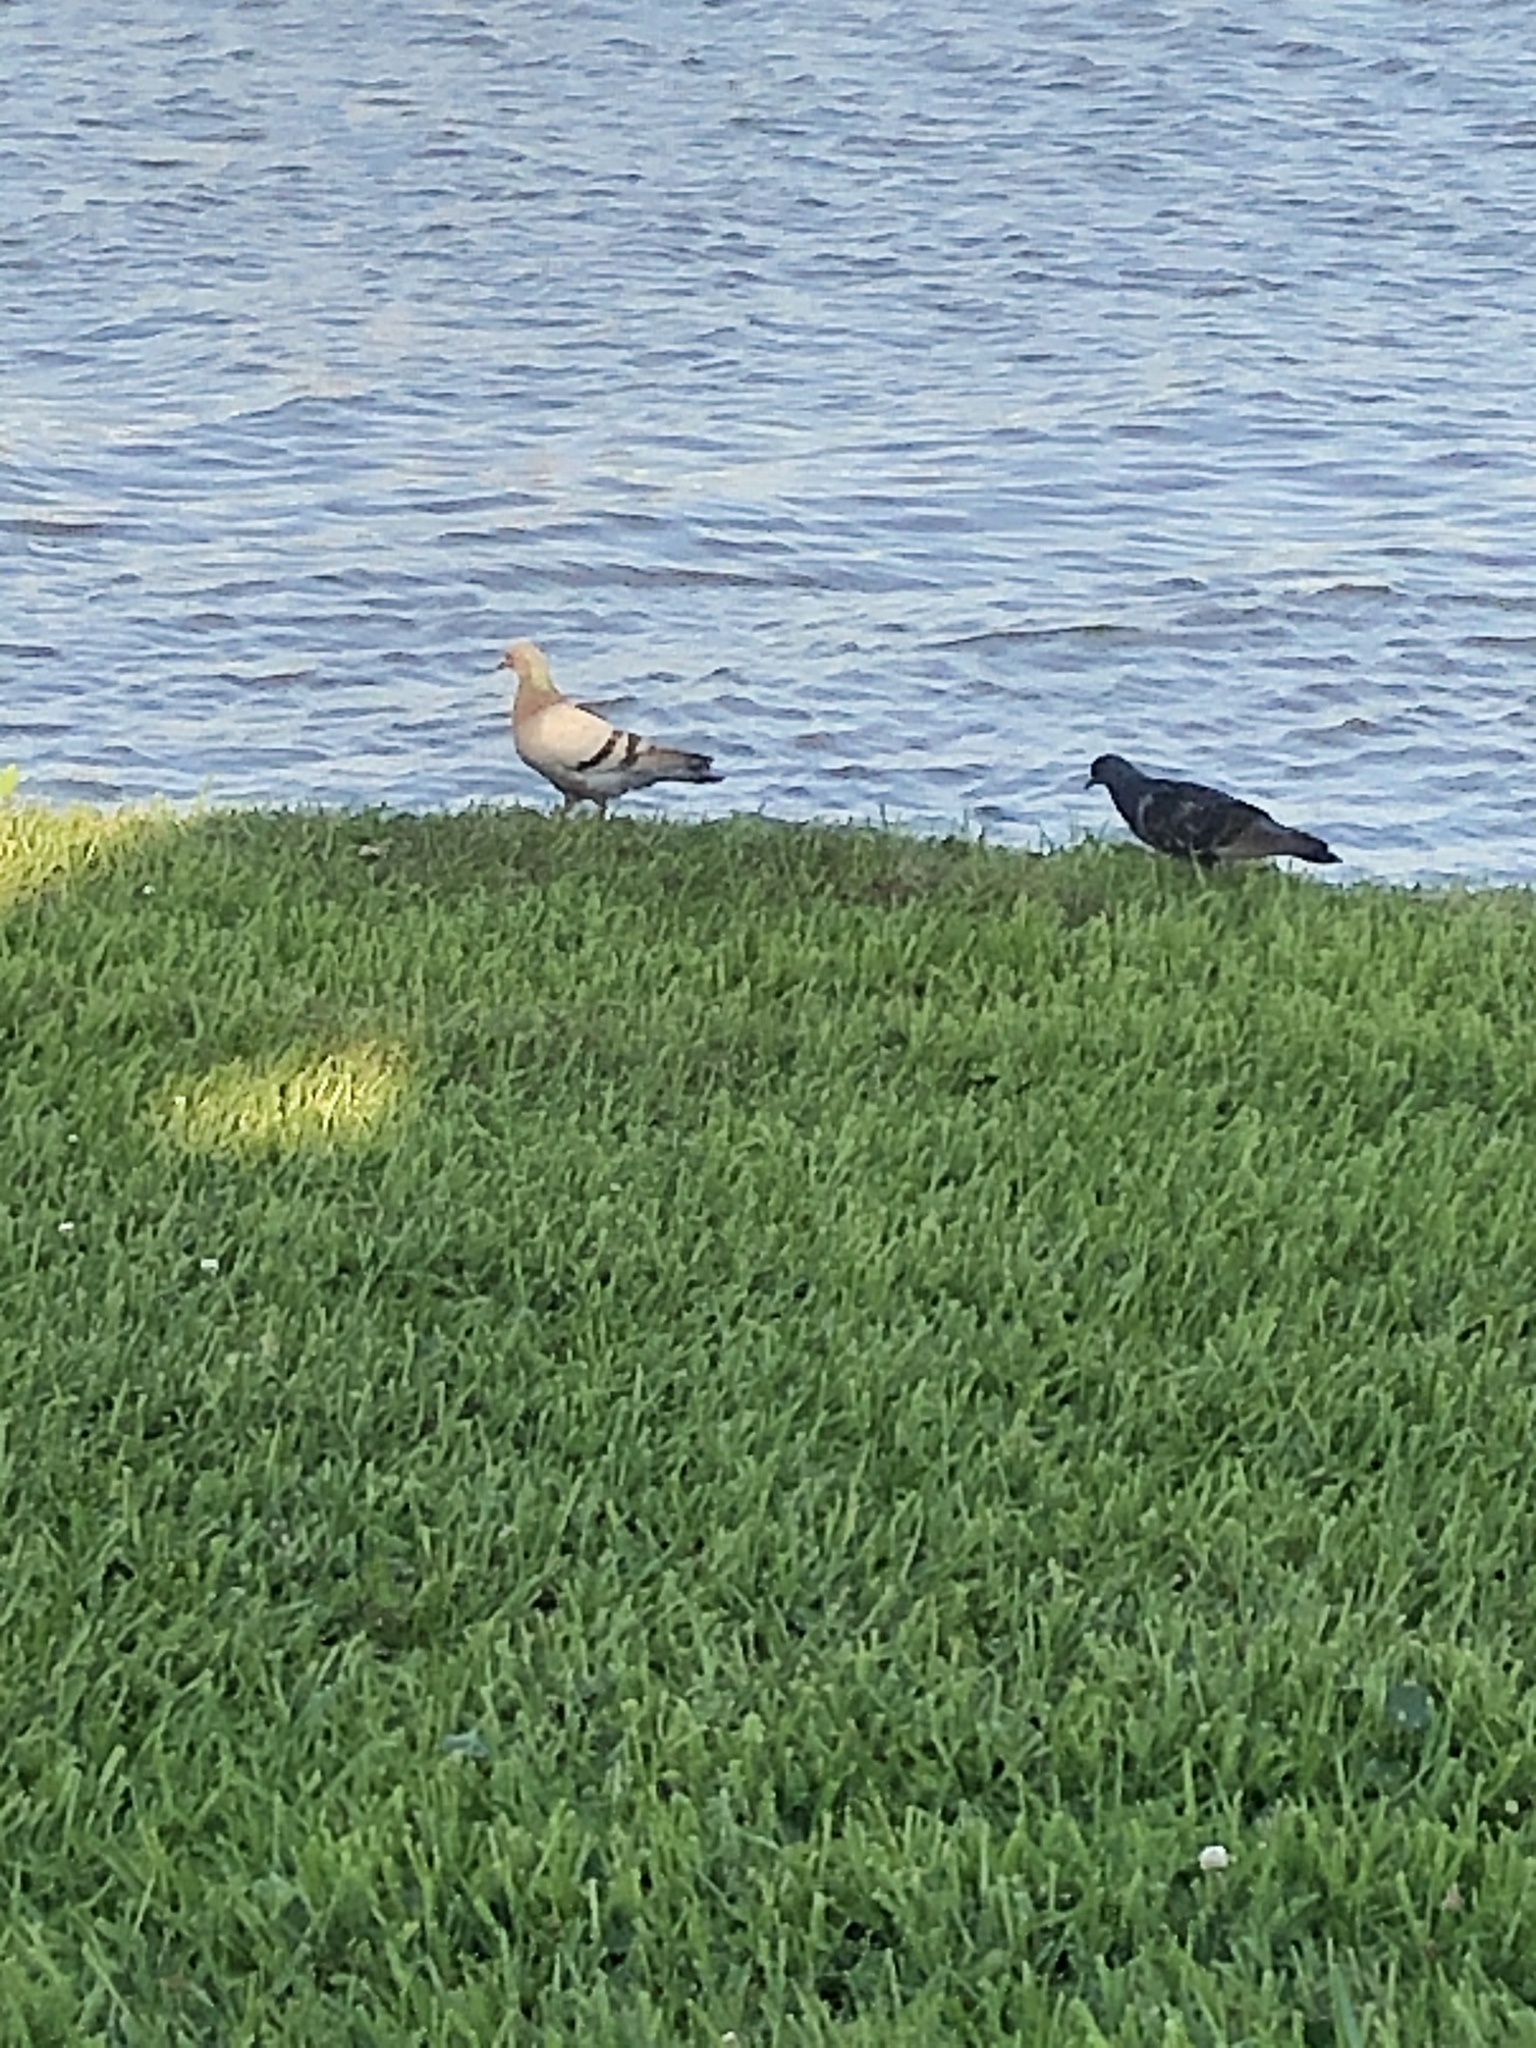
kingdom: Animalia
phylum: Chordata
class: Aves
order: Columbiformes
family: Columbidae
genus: Columba
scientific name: Columba livia
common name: Rock pigeon
